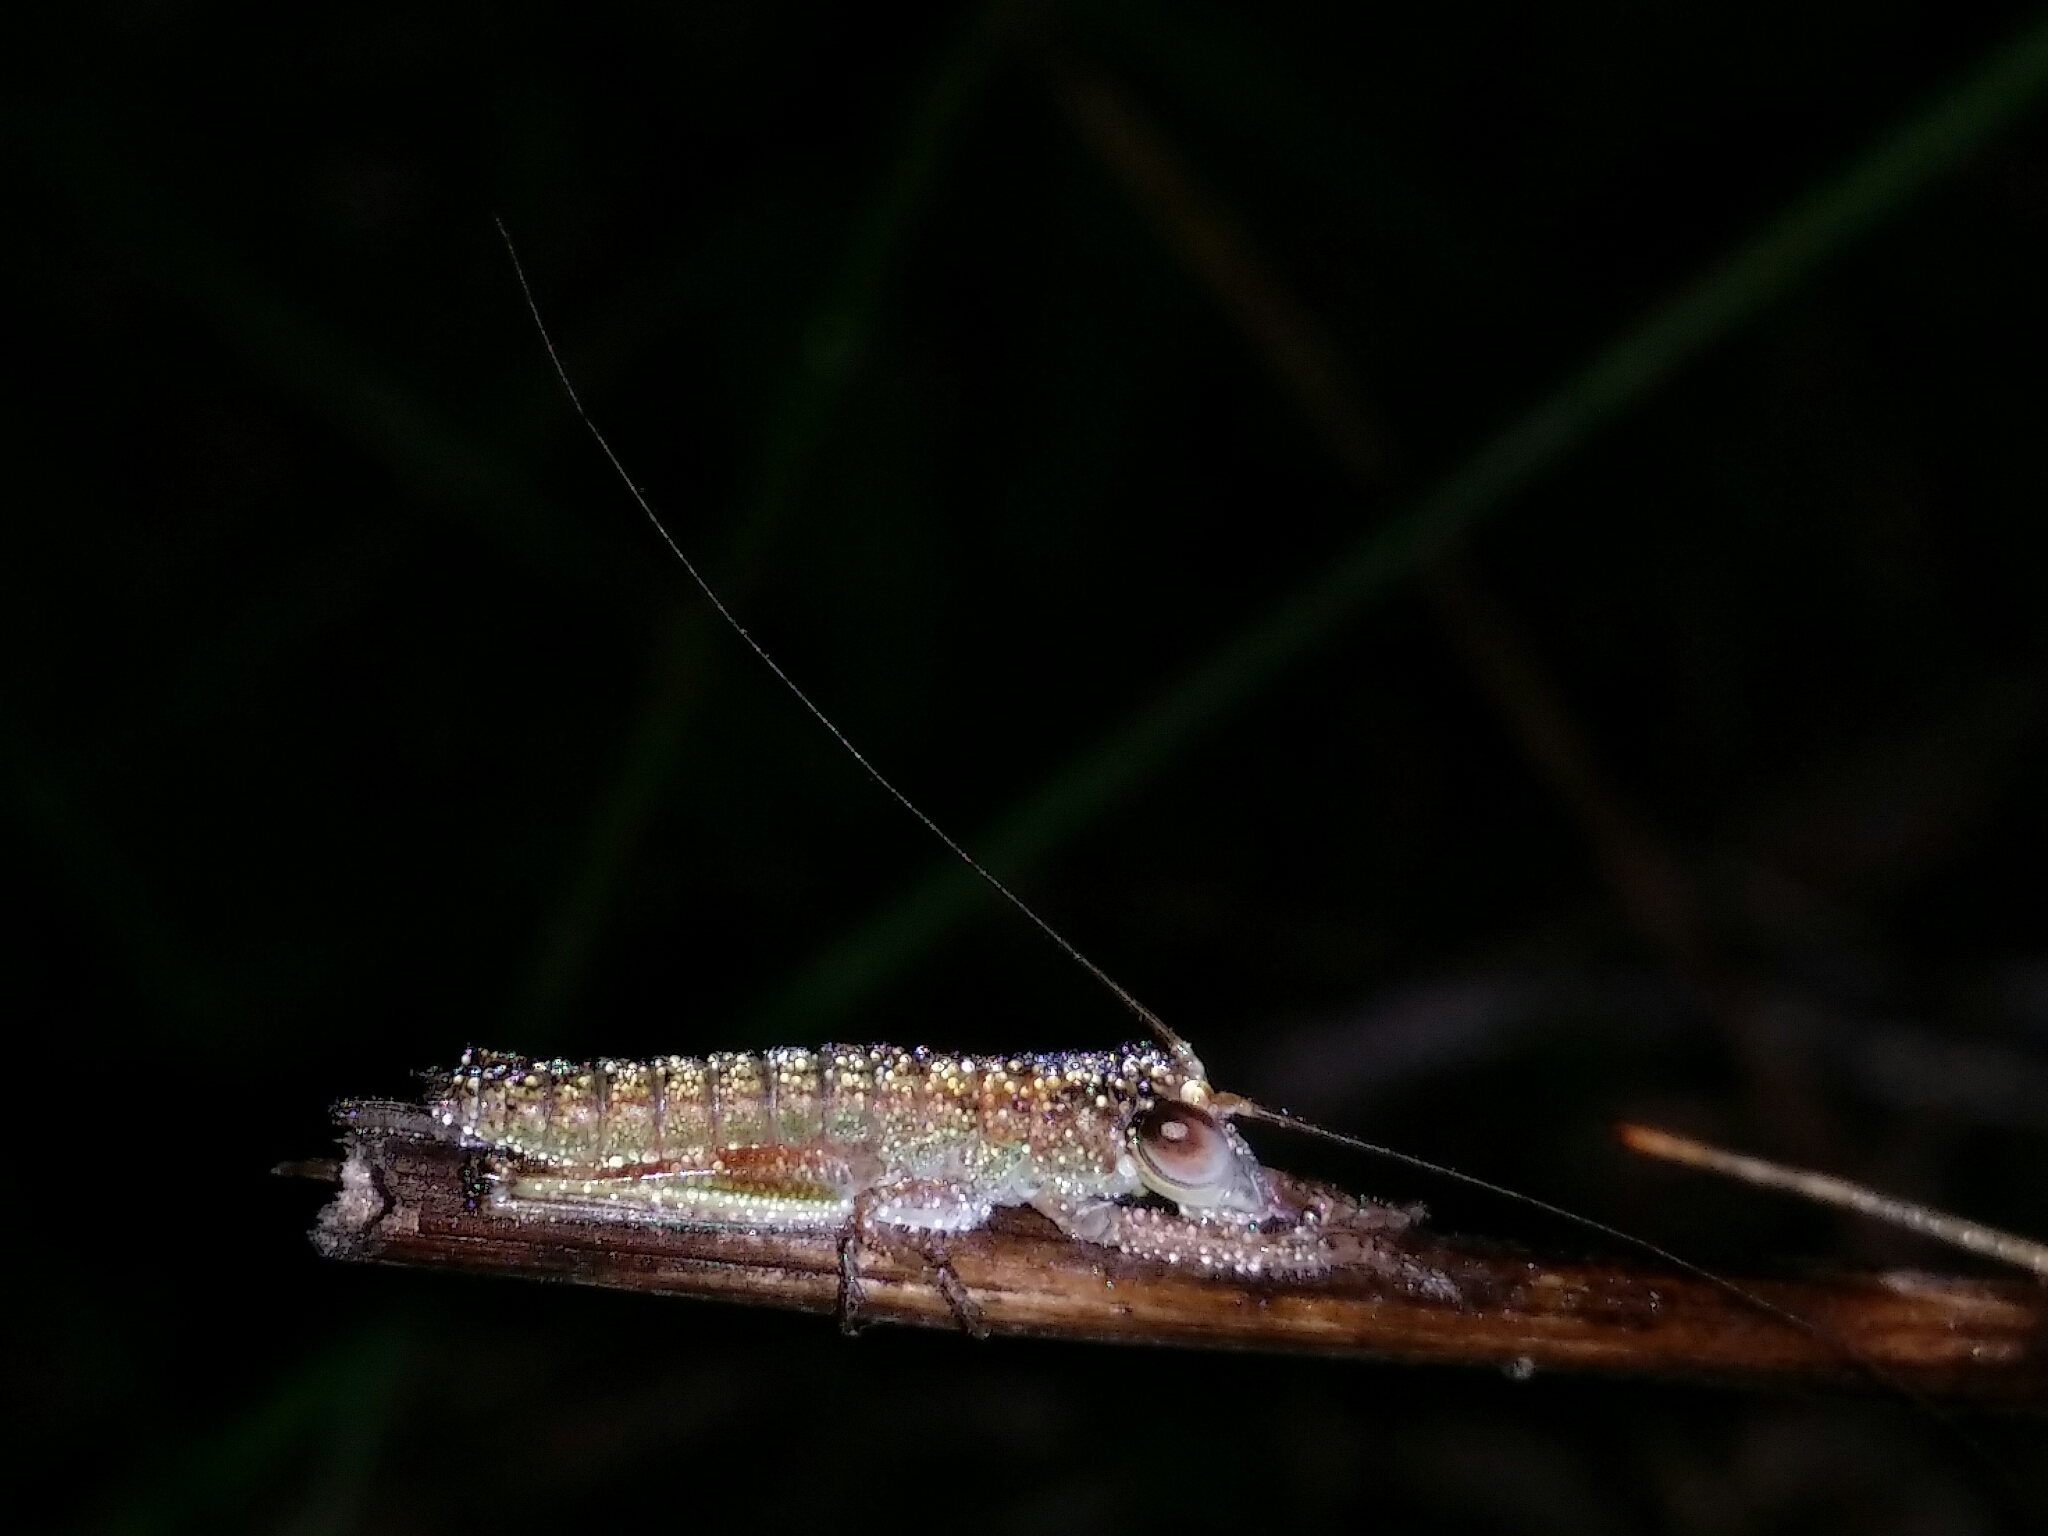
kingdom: Animalia
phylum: Arthropoda
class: Insecta
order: Orthoptera
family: Tettigoniidae
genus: Tympanophora
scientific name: Tympanophora andreae
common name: Andrea's balloon-winged katydid
